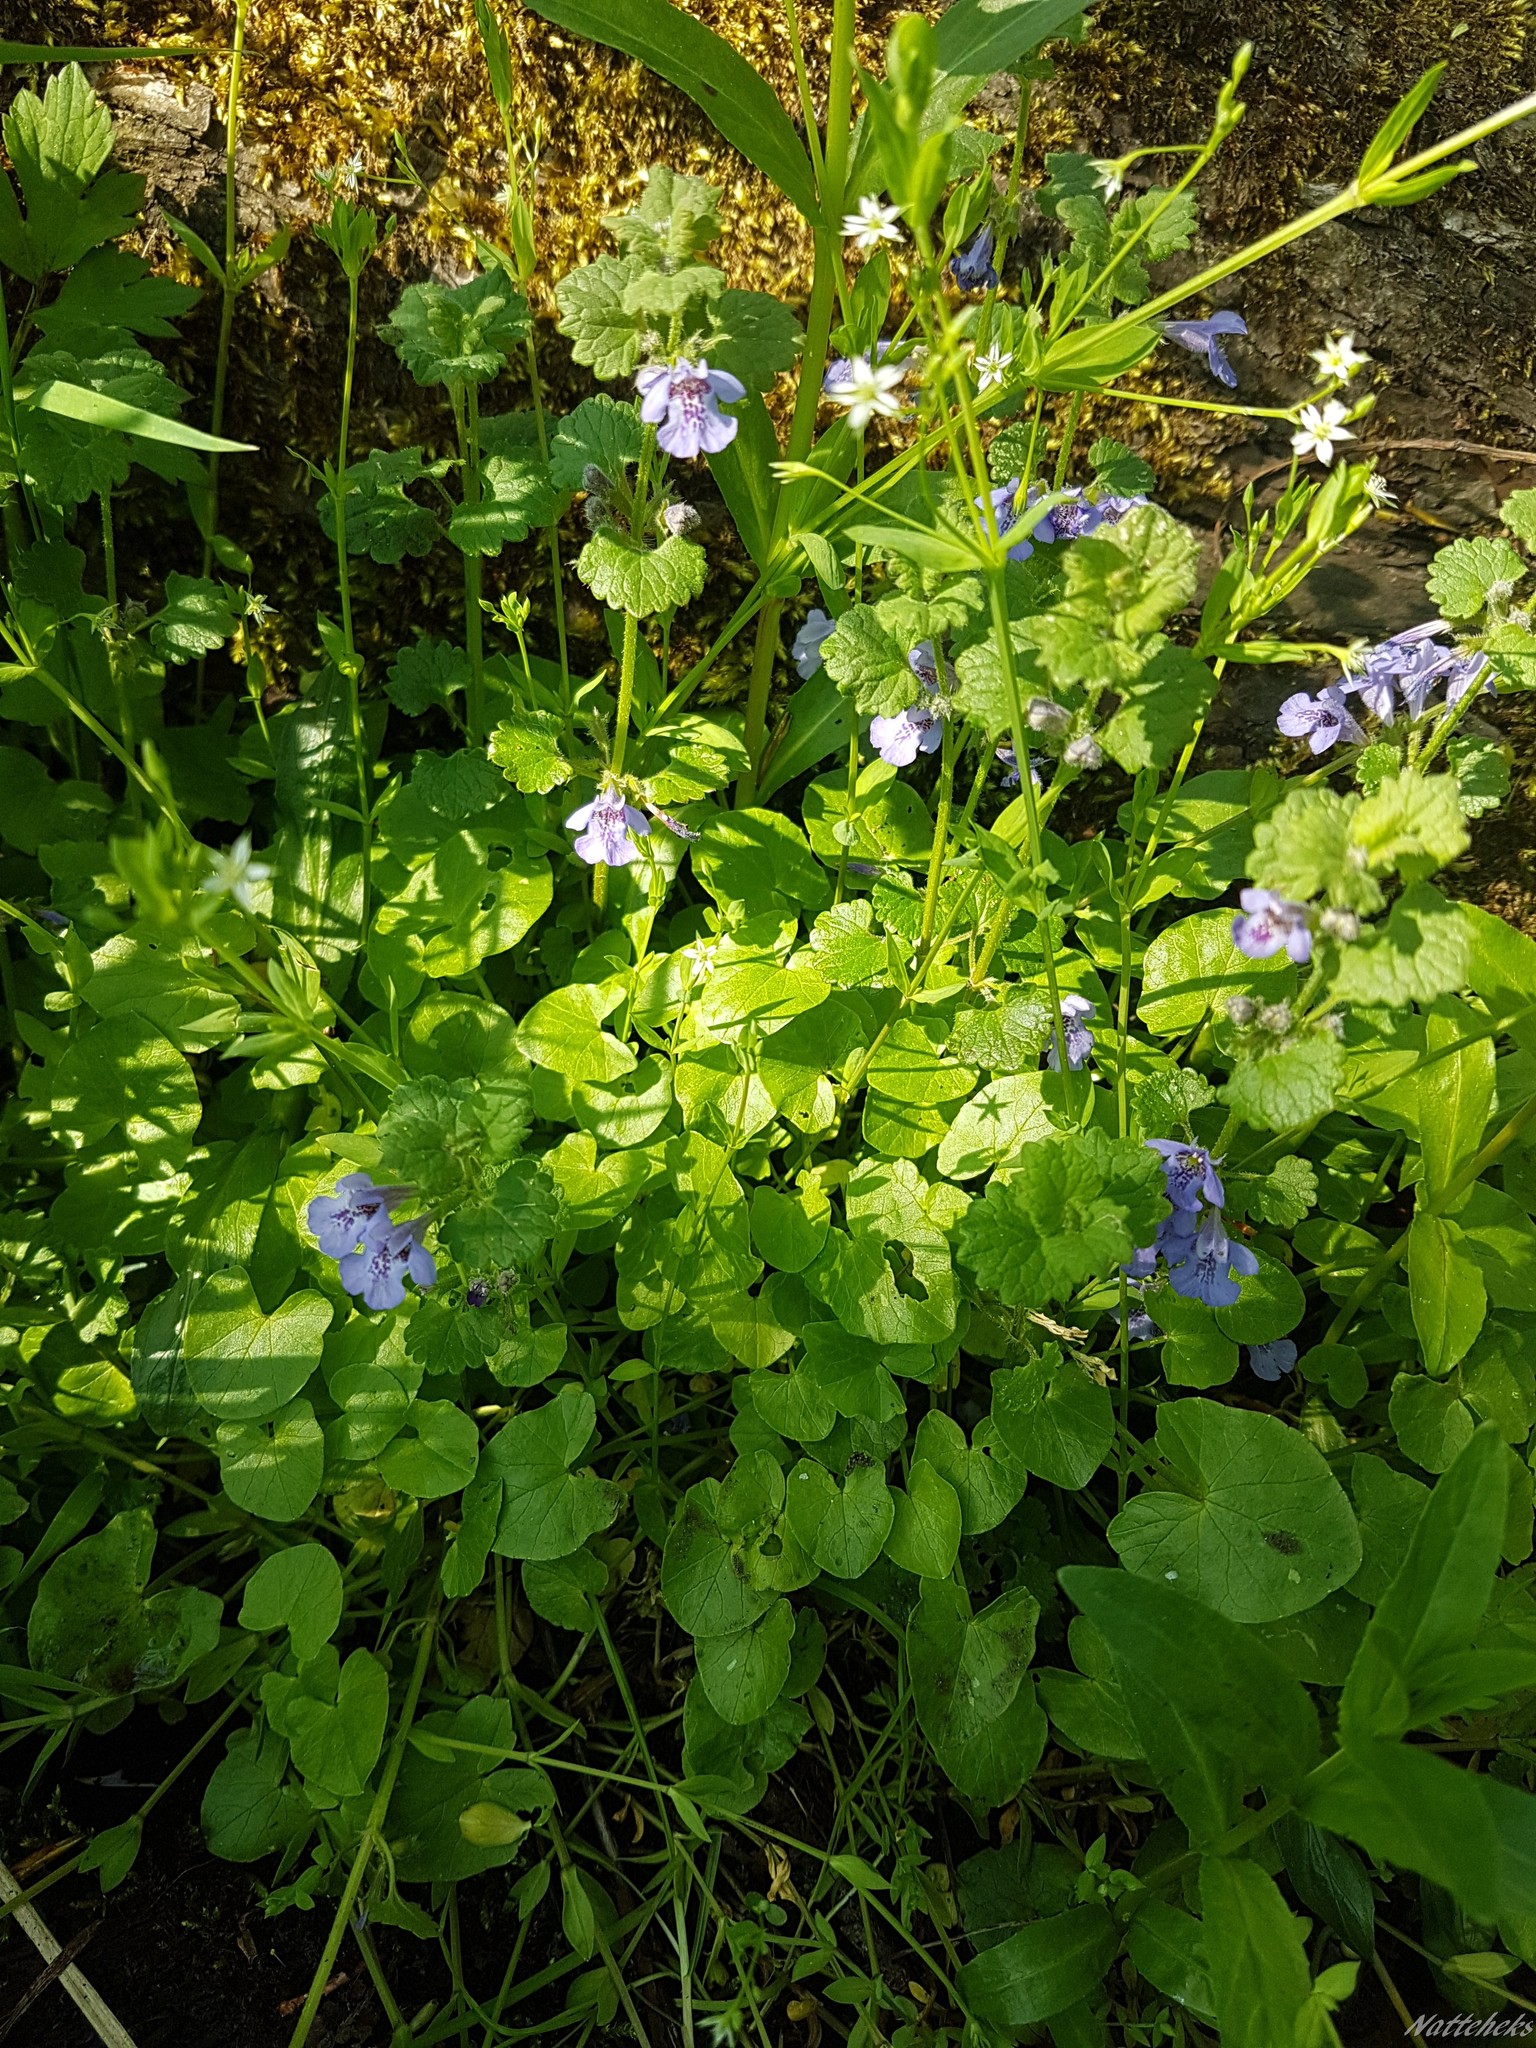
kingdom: Plantae
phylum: Tracheophyta
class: Magnoliopsida
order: Lamiales
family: Lamiaceae
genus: Glechoma
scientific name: Glechoma hederacea
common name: Ground ivy
